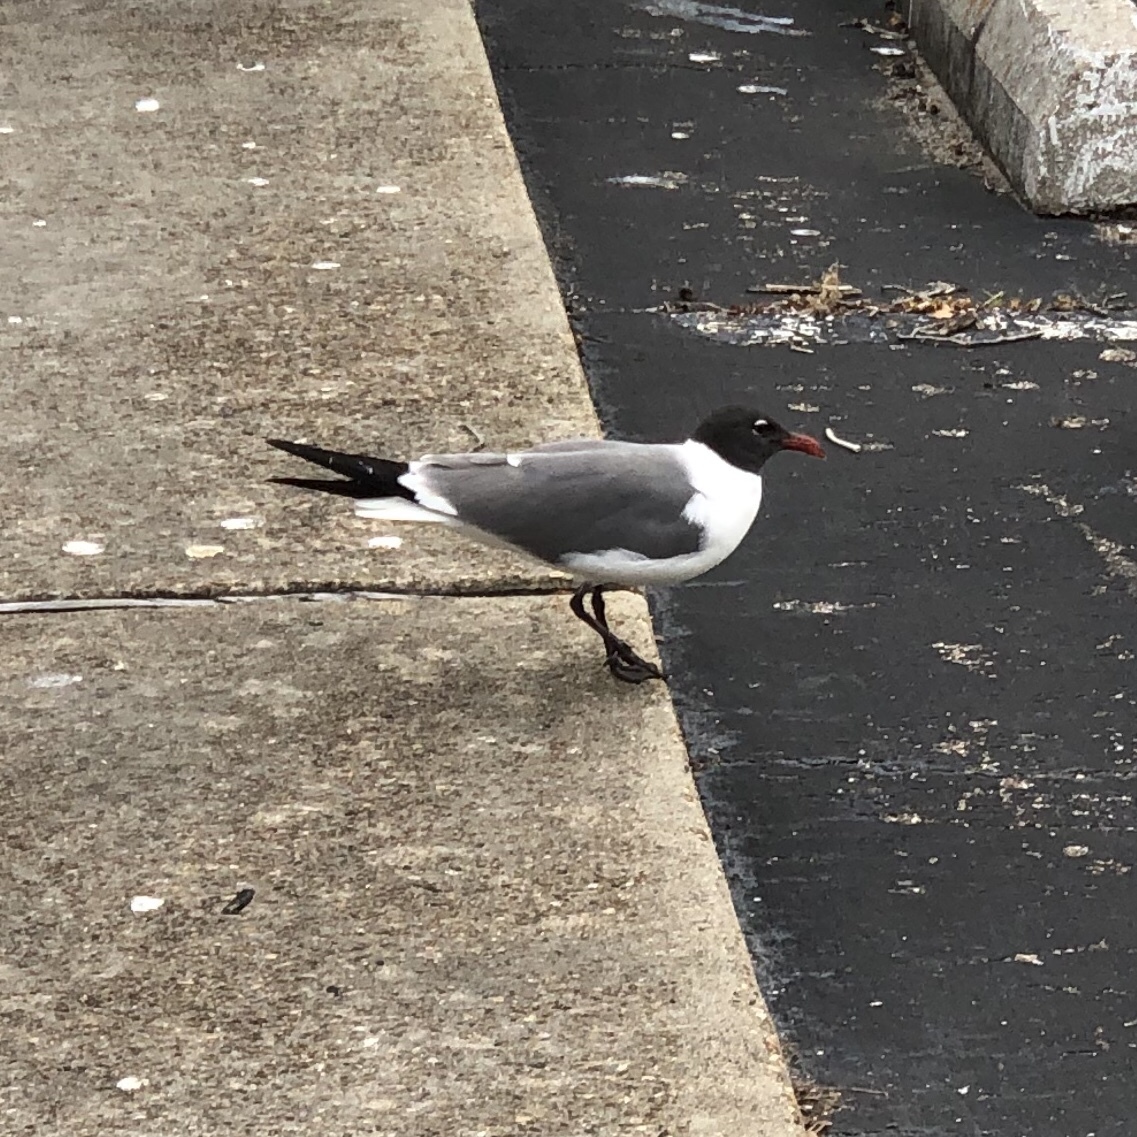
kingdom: Animalia
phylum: Chordata
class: Aves
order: Charadriiformes
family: Laridae
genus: Leucophaeus
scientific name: Leucophaeus atricilla
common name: Laughing gull
